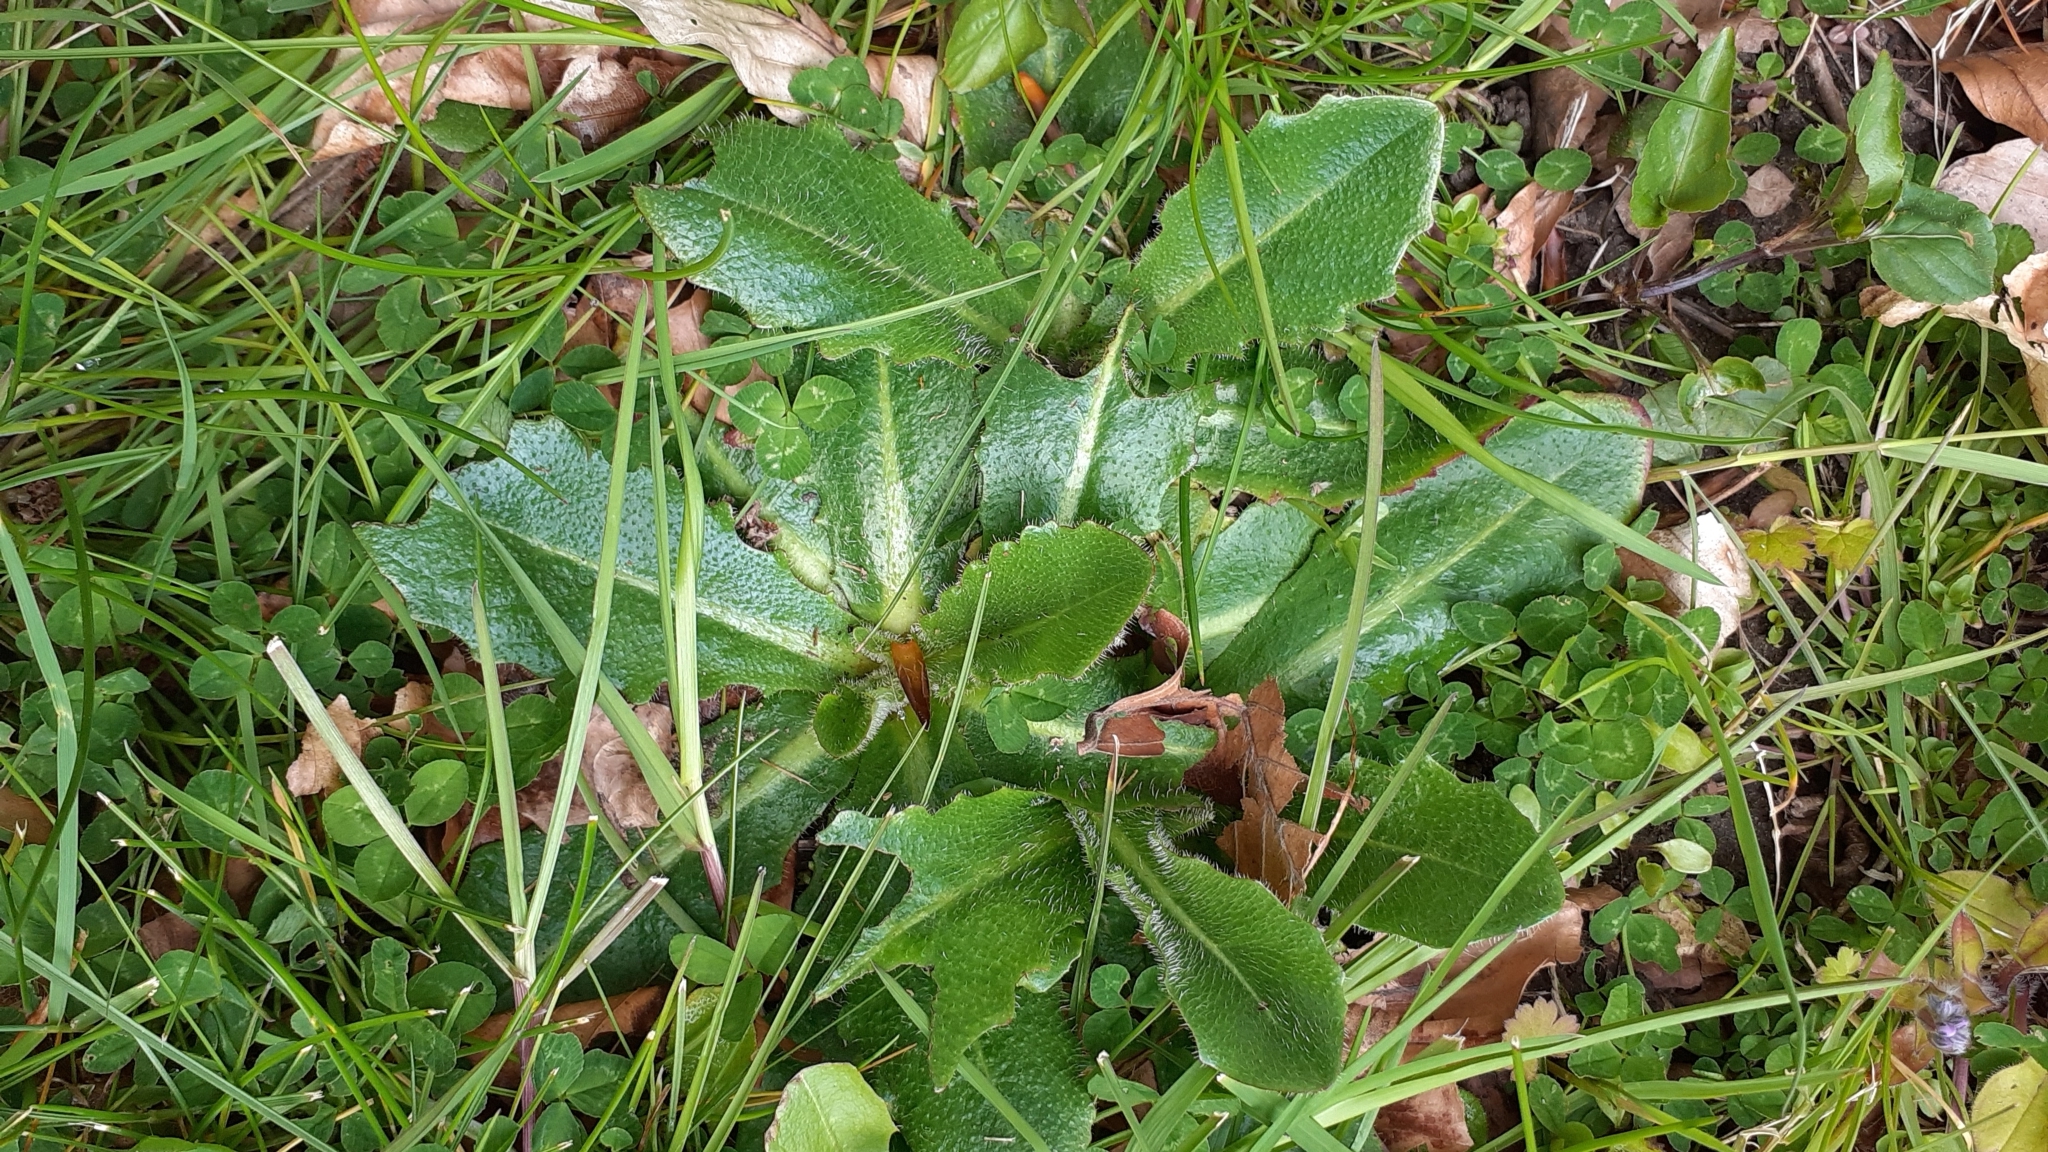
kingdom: Plantae
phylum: Tracheophyta
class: Magnoliopsida
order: Asterales
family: Asteraceae
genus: Hypochaeris
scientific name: Hypochaeris radicata
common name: Flatweed
